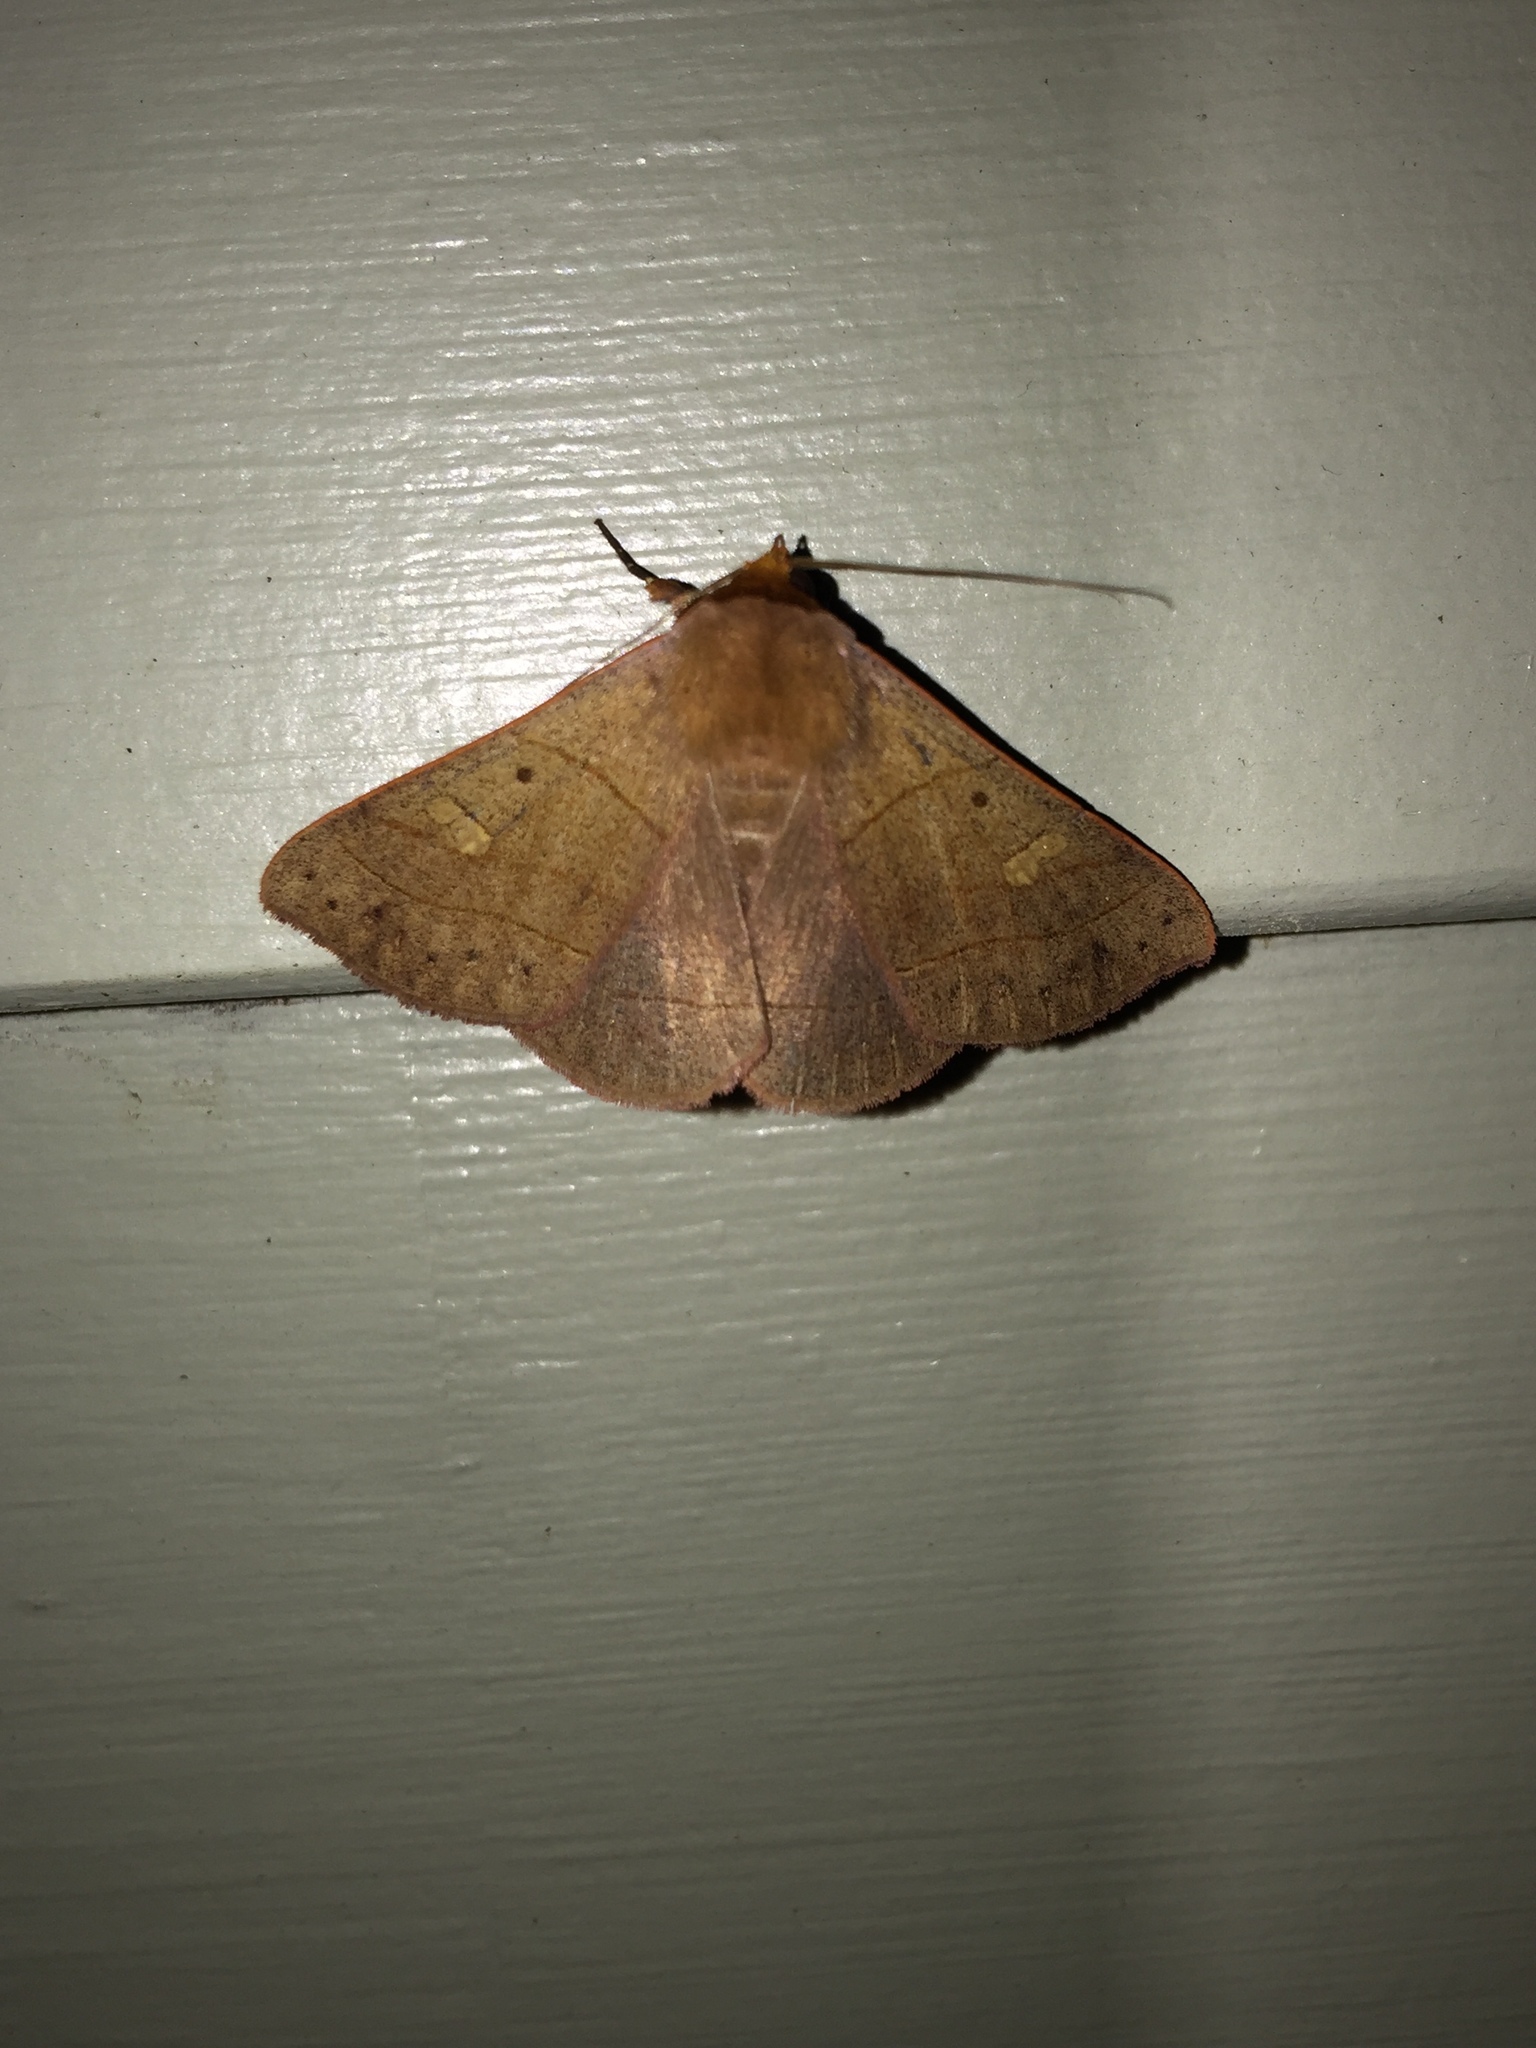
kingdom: Animalia
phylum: Arthropoda
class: Insecta
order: Lepidoptera
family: Erebidae
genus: Panopoda
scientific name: Panopoda rufimargo
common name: Red-lined panopoda moth
